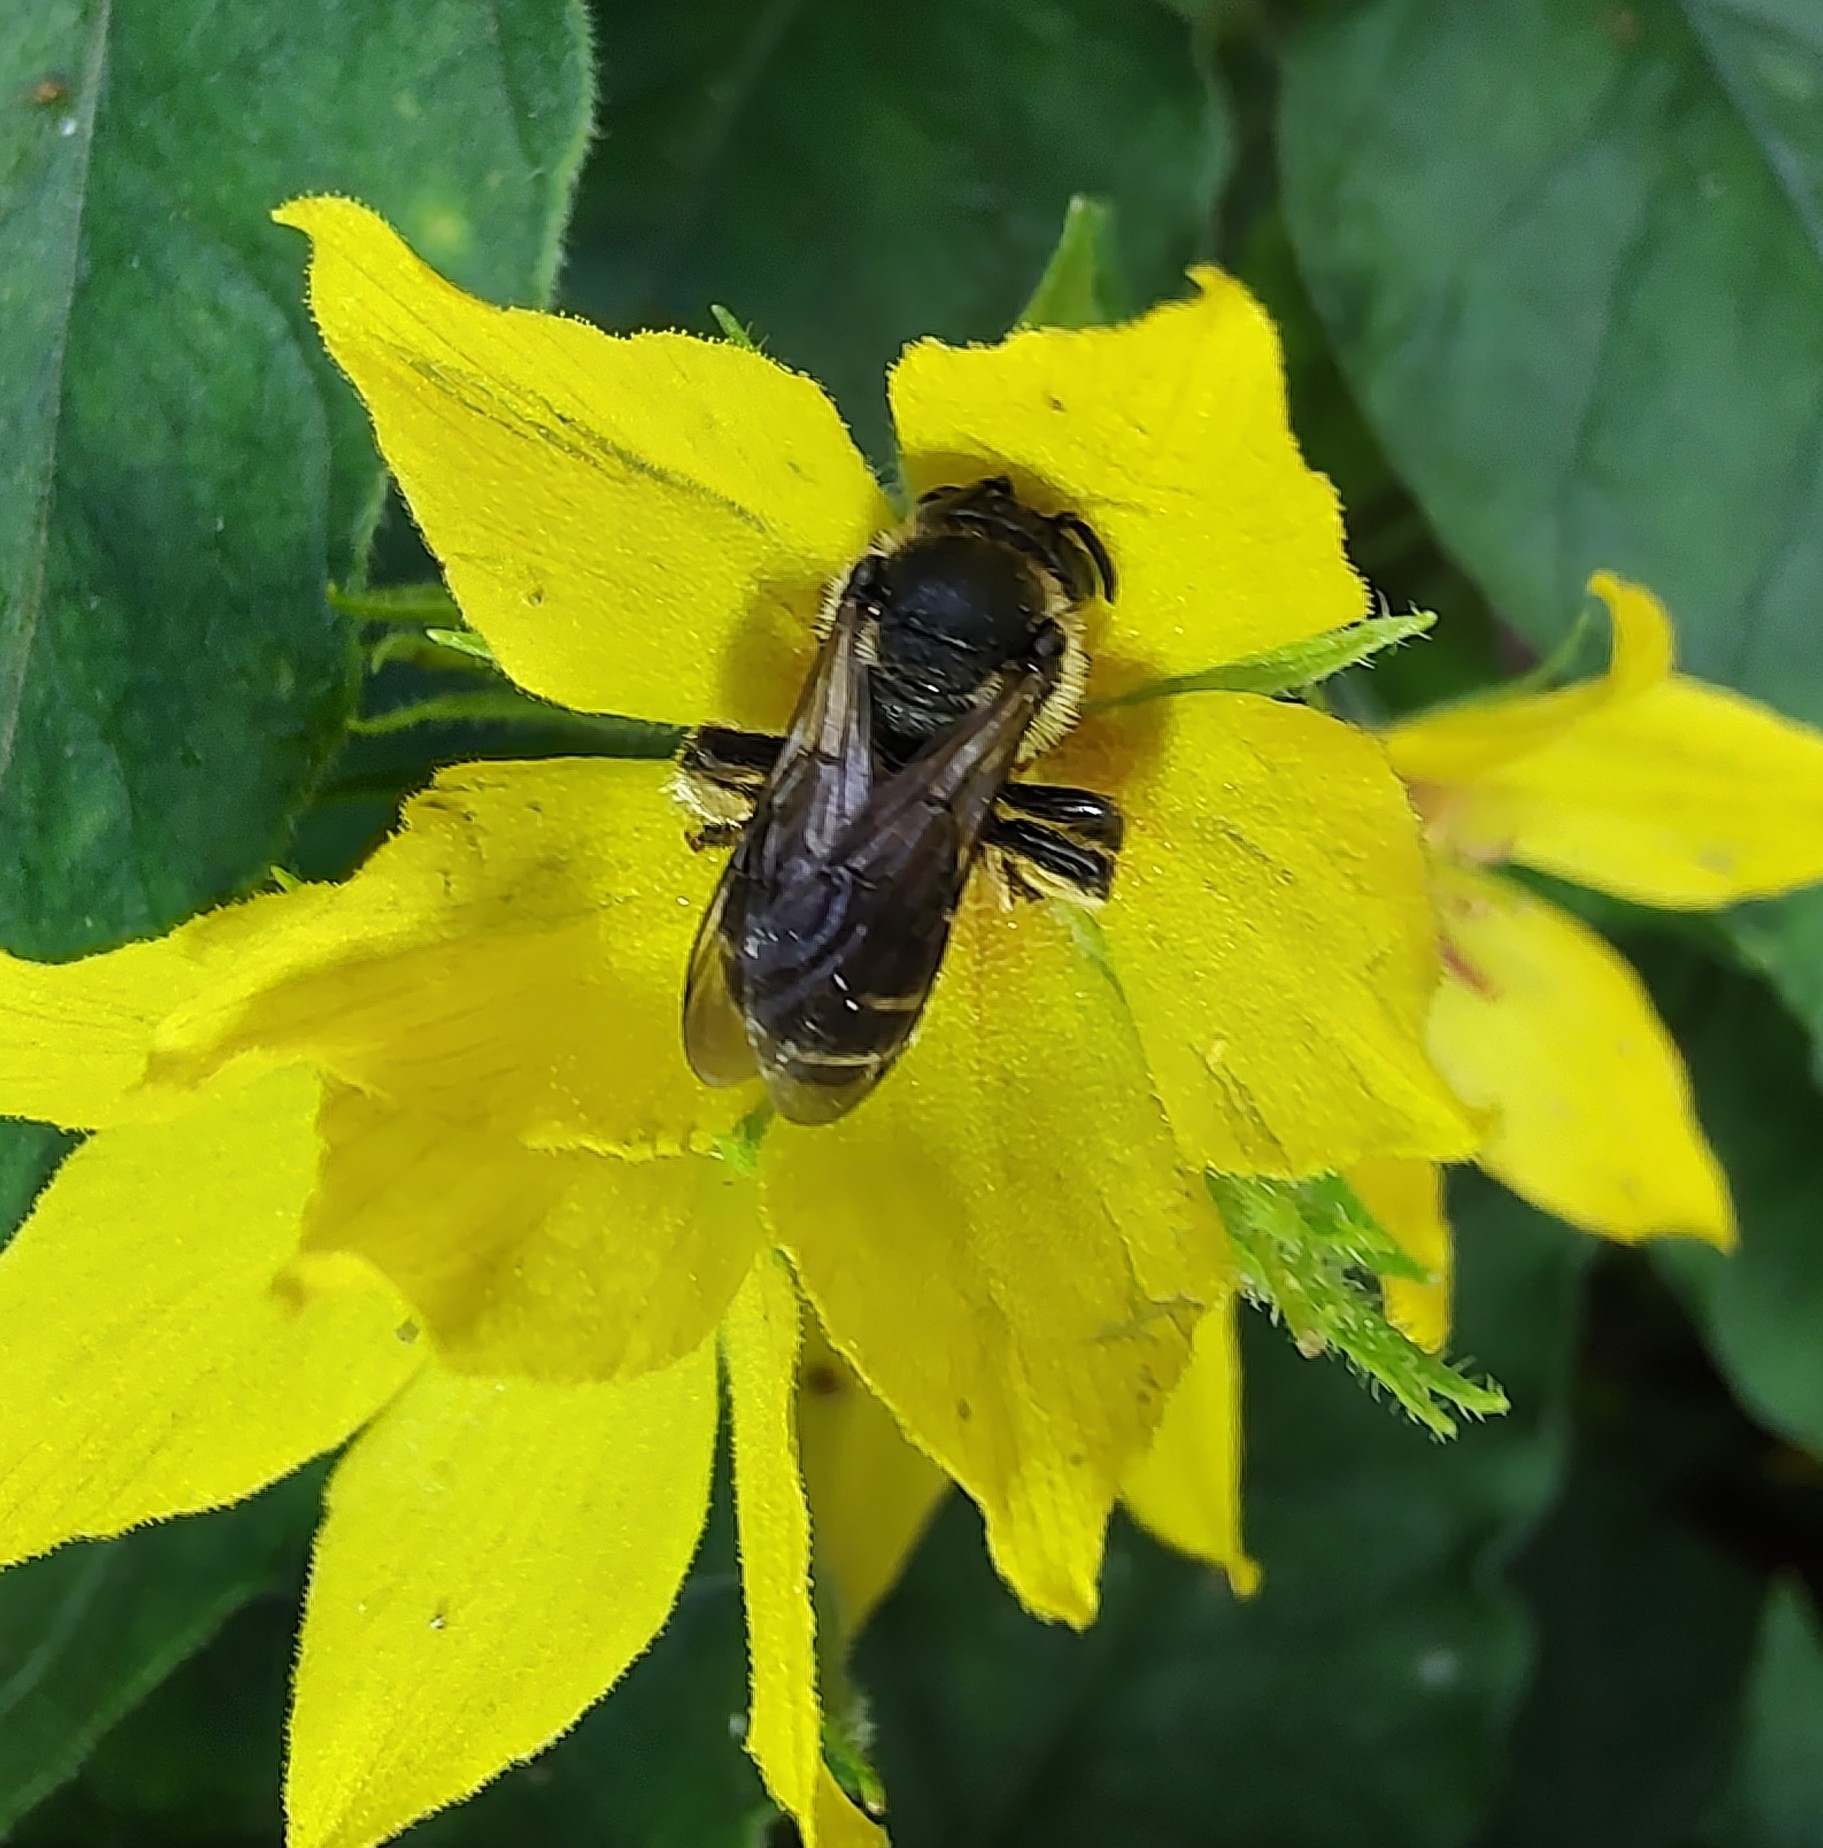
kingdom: Animalia
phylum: Arthropoda
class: Insecta
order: Hymenoptera
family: Melittidae
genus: Macropis
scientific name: Macropis europaea
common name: Yellow loosestrife bee
